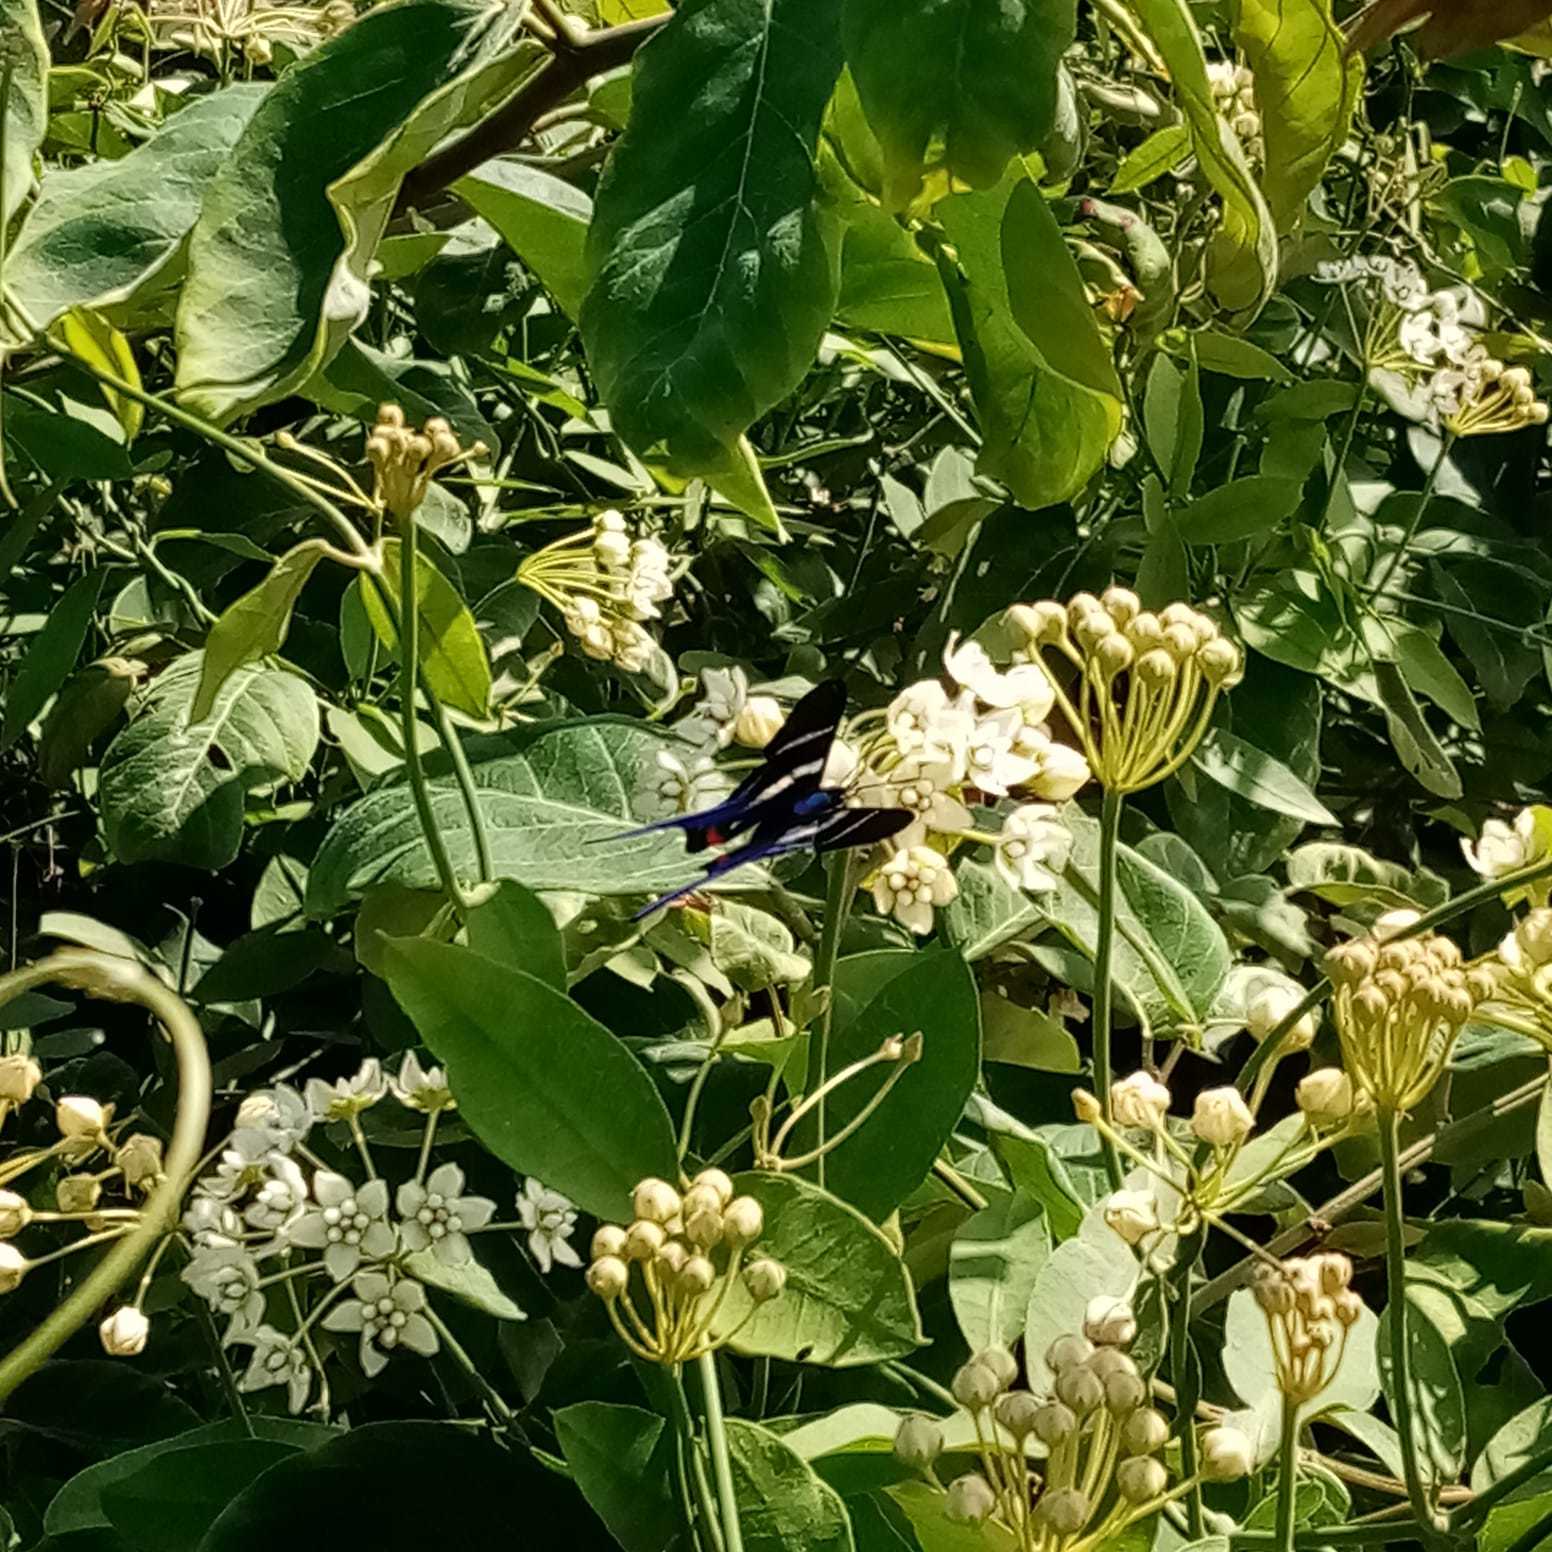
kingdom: Animalia
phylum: Arthropoda
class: Insecta
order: Lepidoptera
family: Riodinidae
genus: Rhetus
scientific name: Rhetus arcius
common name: Long-tailed metalmark
